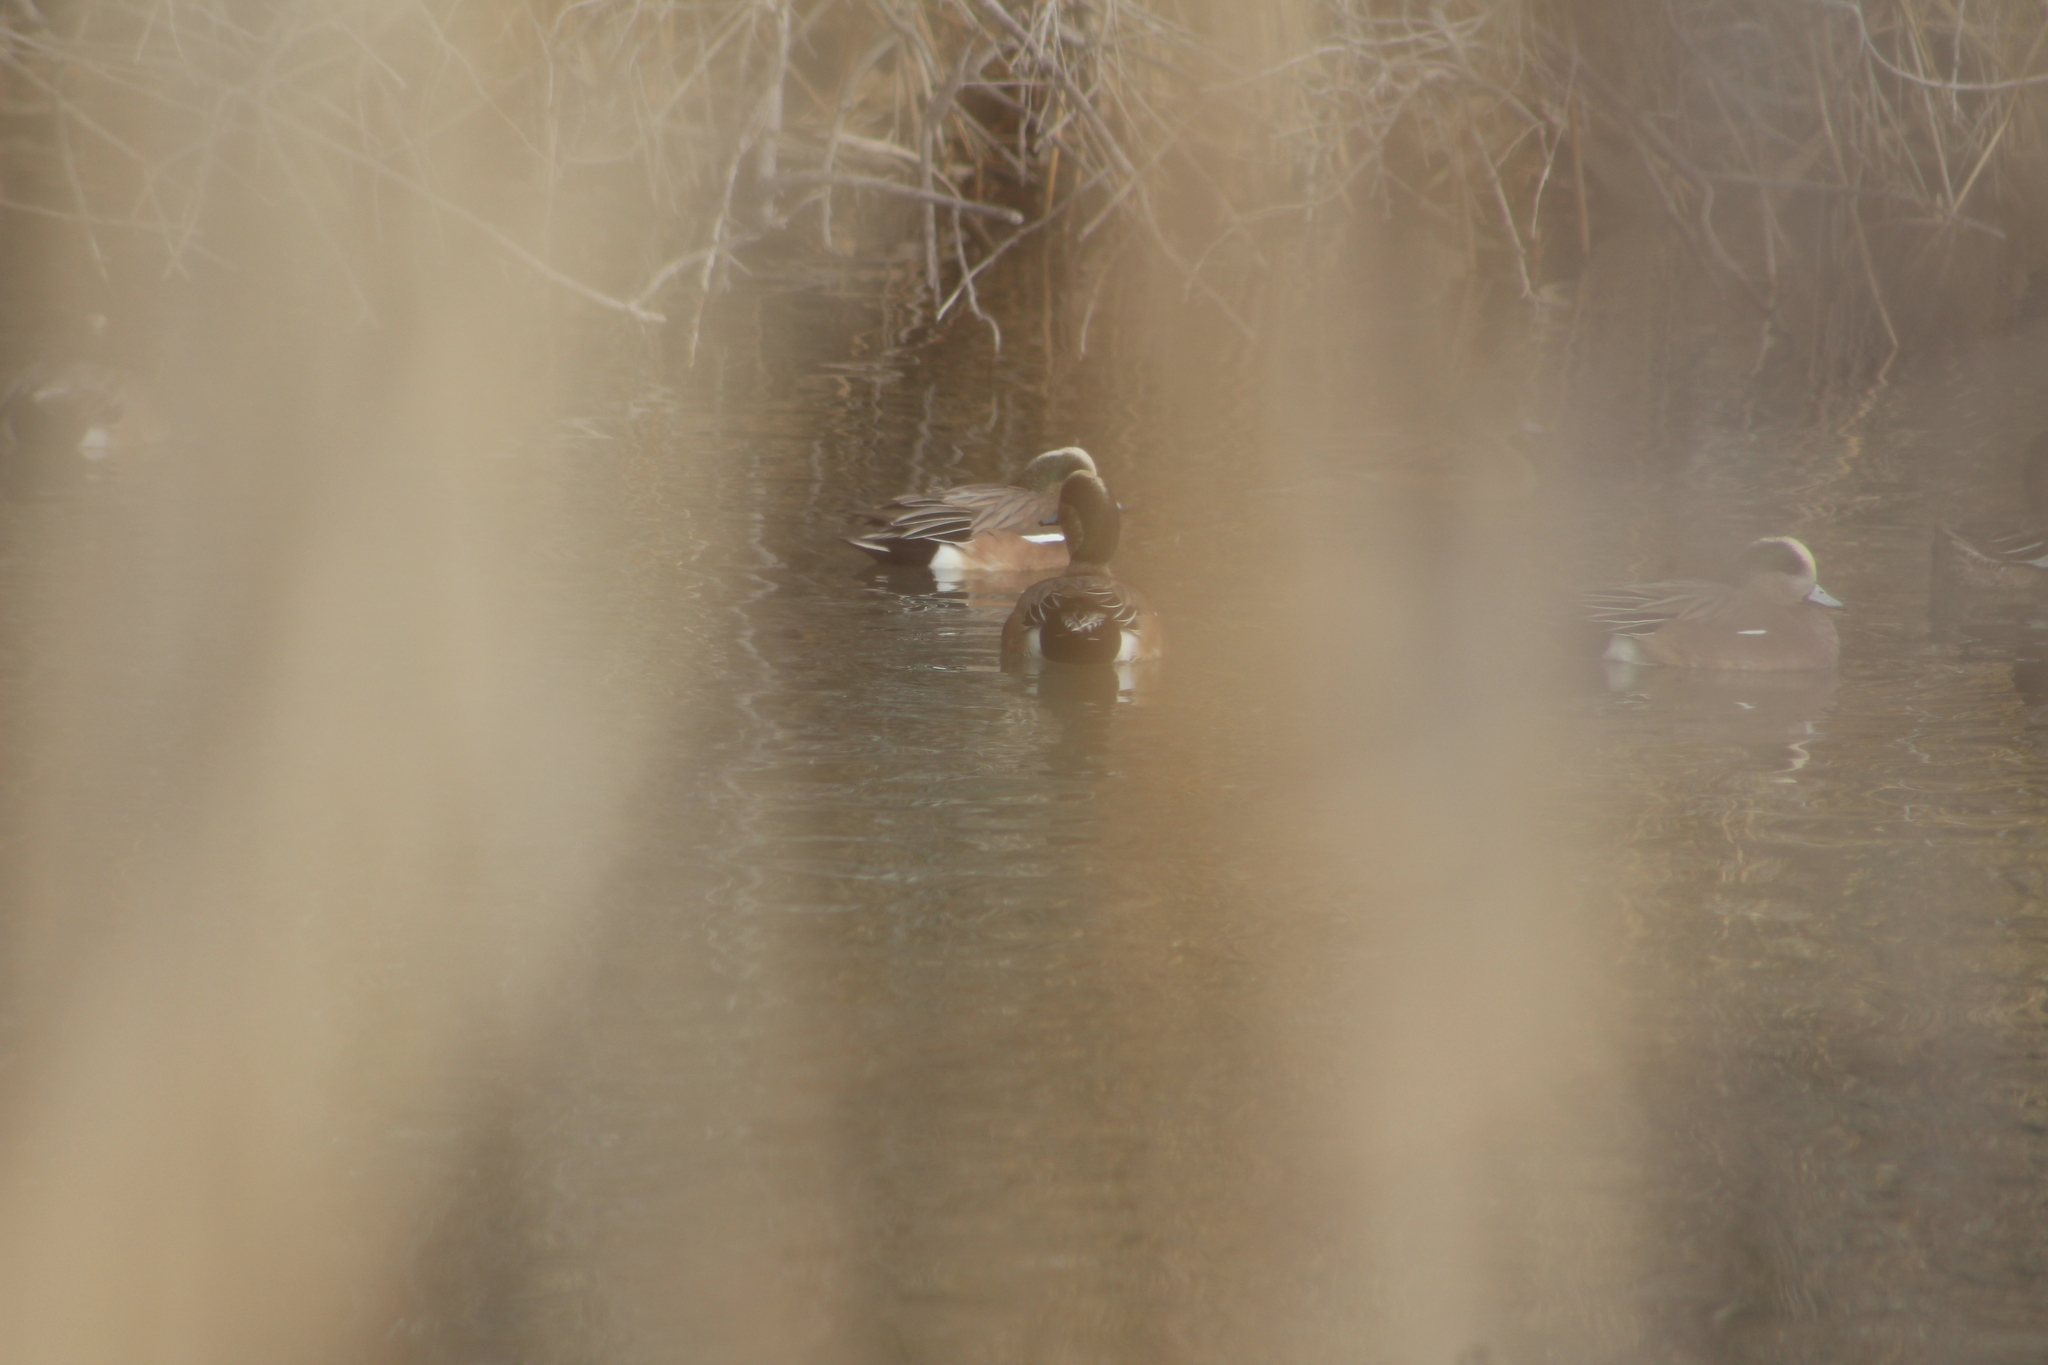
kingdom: Animalia
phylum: Chordata
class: Aves
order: Anseriformes
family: Anatidae
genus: Mareca
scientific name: Mareca americana
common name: American wigeon
